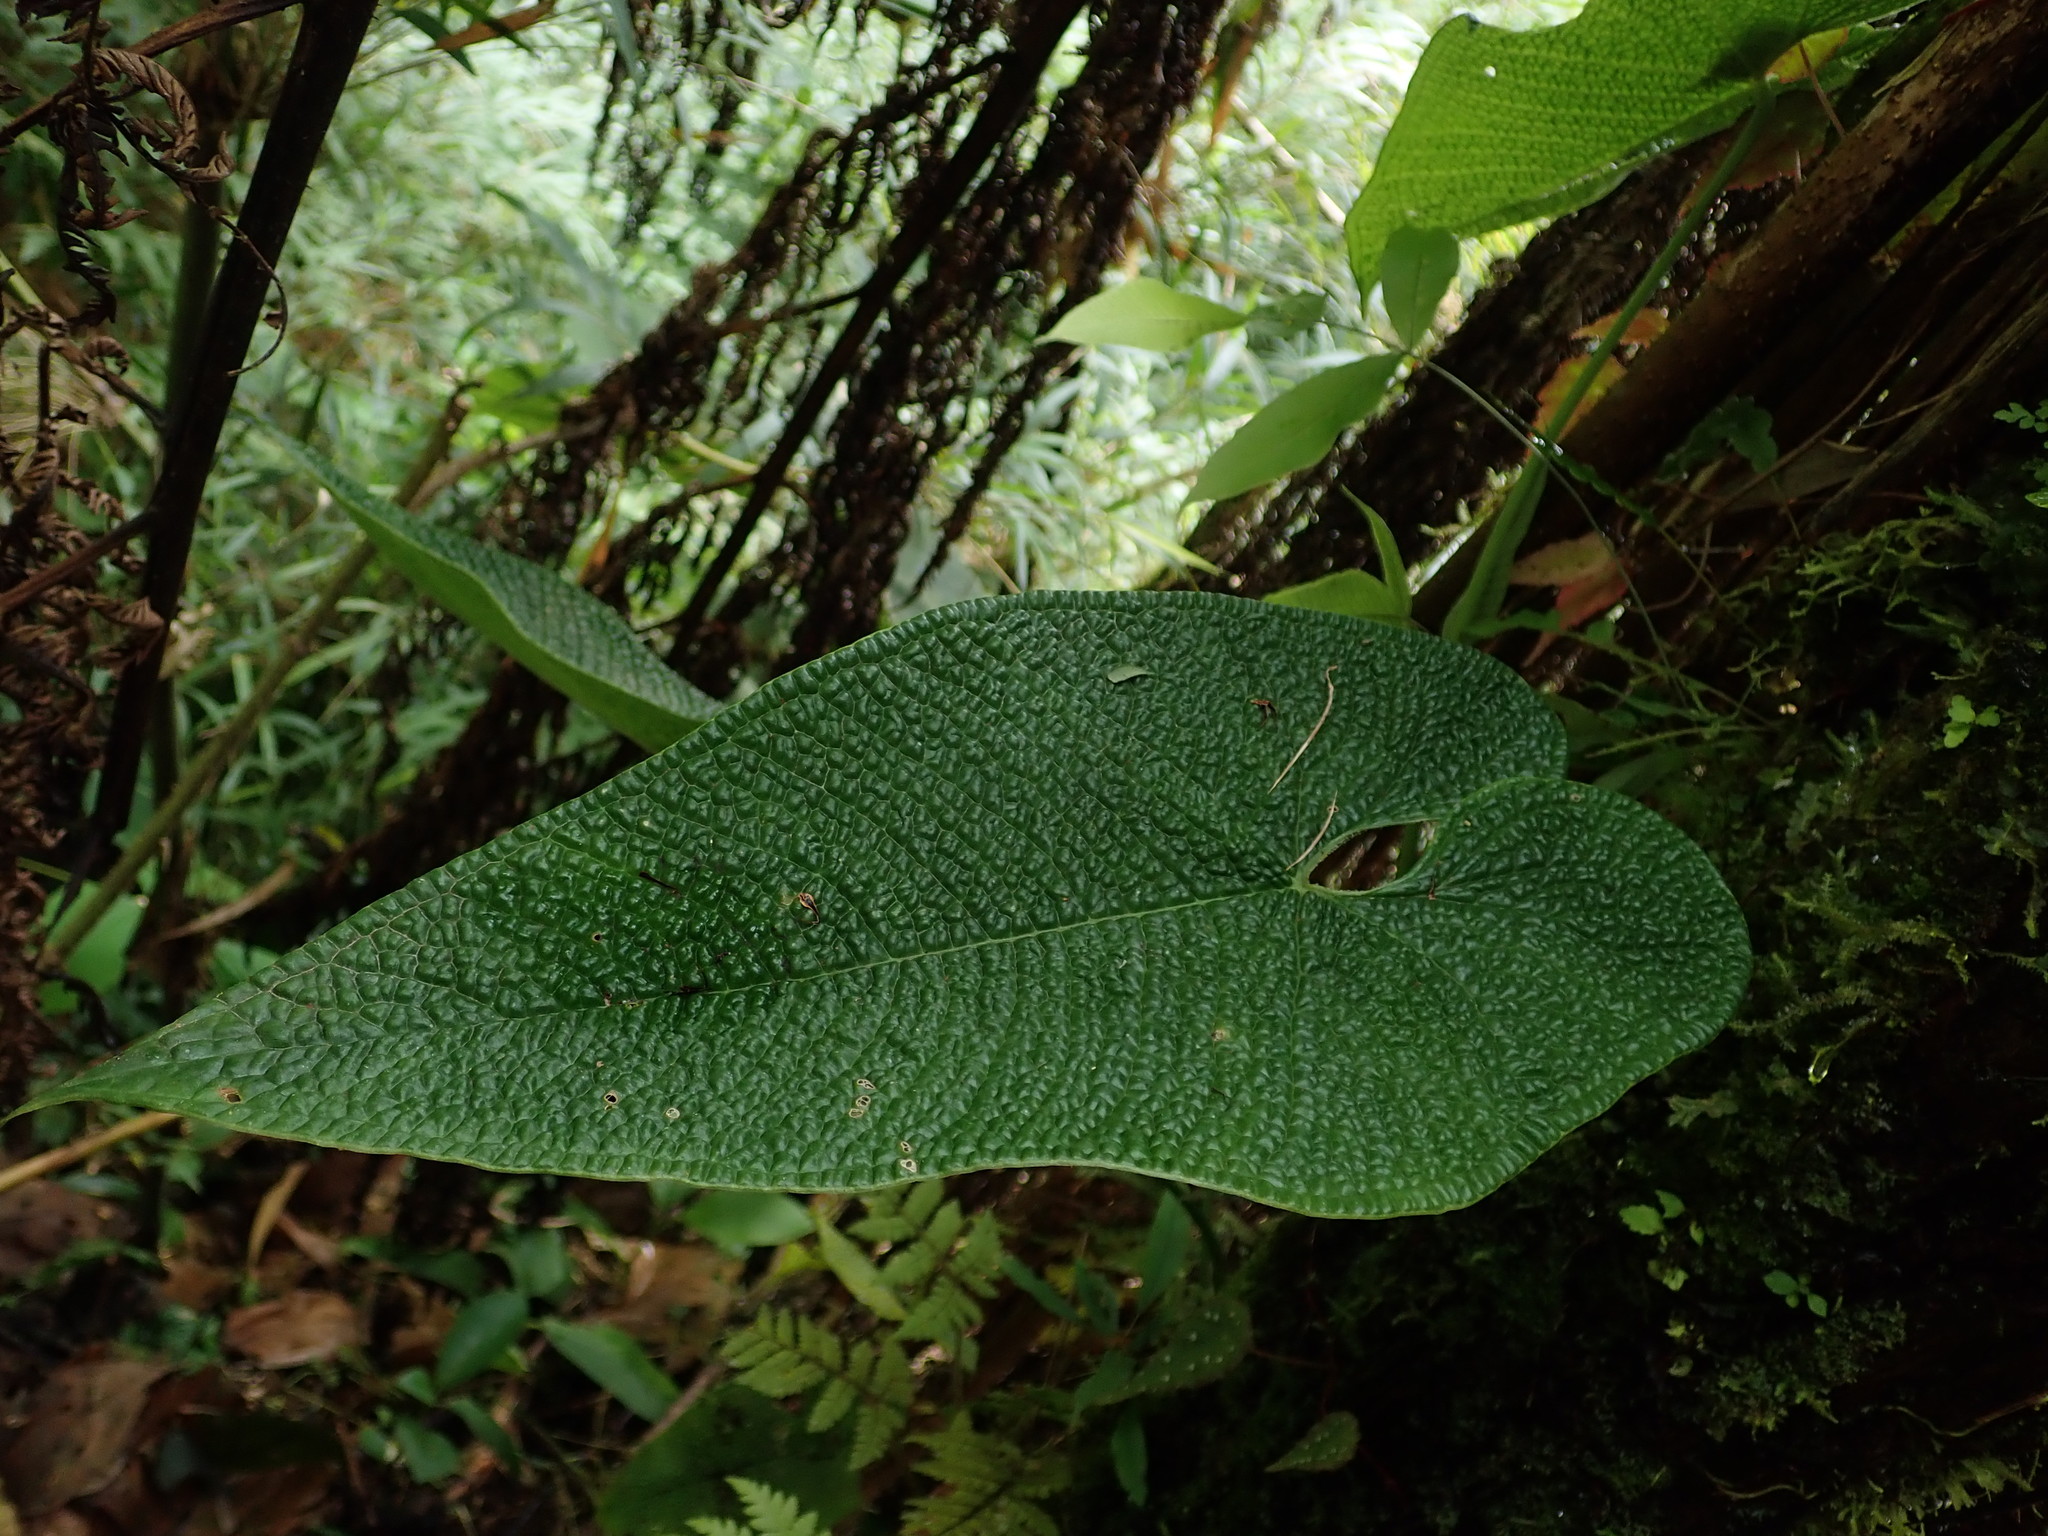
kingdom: Plantae
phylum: Tracheophyta
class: Liliopsida
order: Alismatales
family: Araceae
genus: Anthurium
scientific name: Anthurium corrugatum
